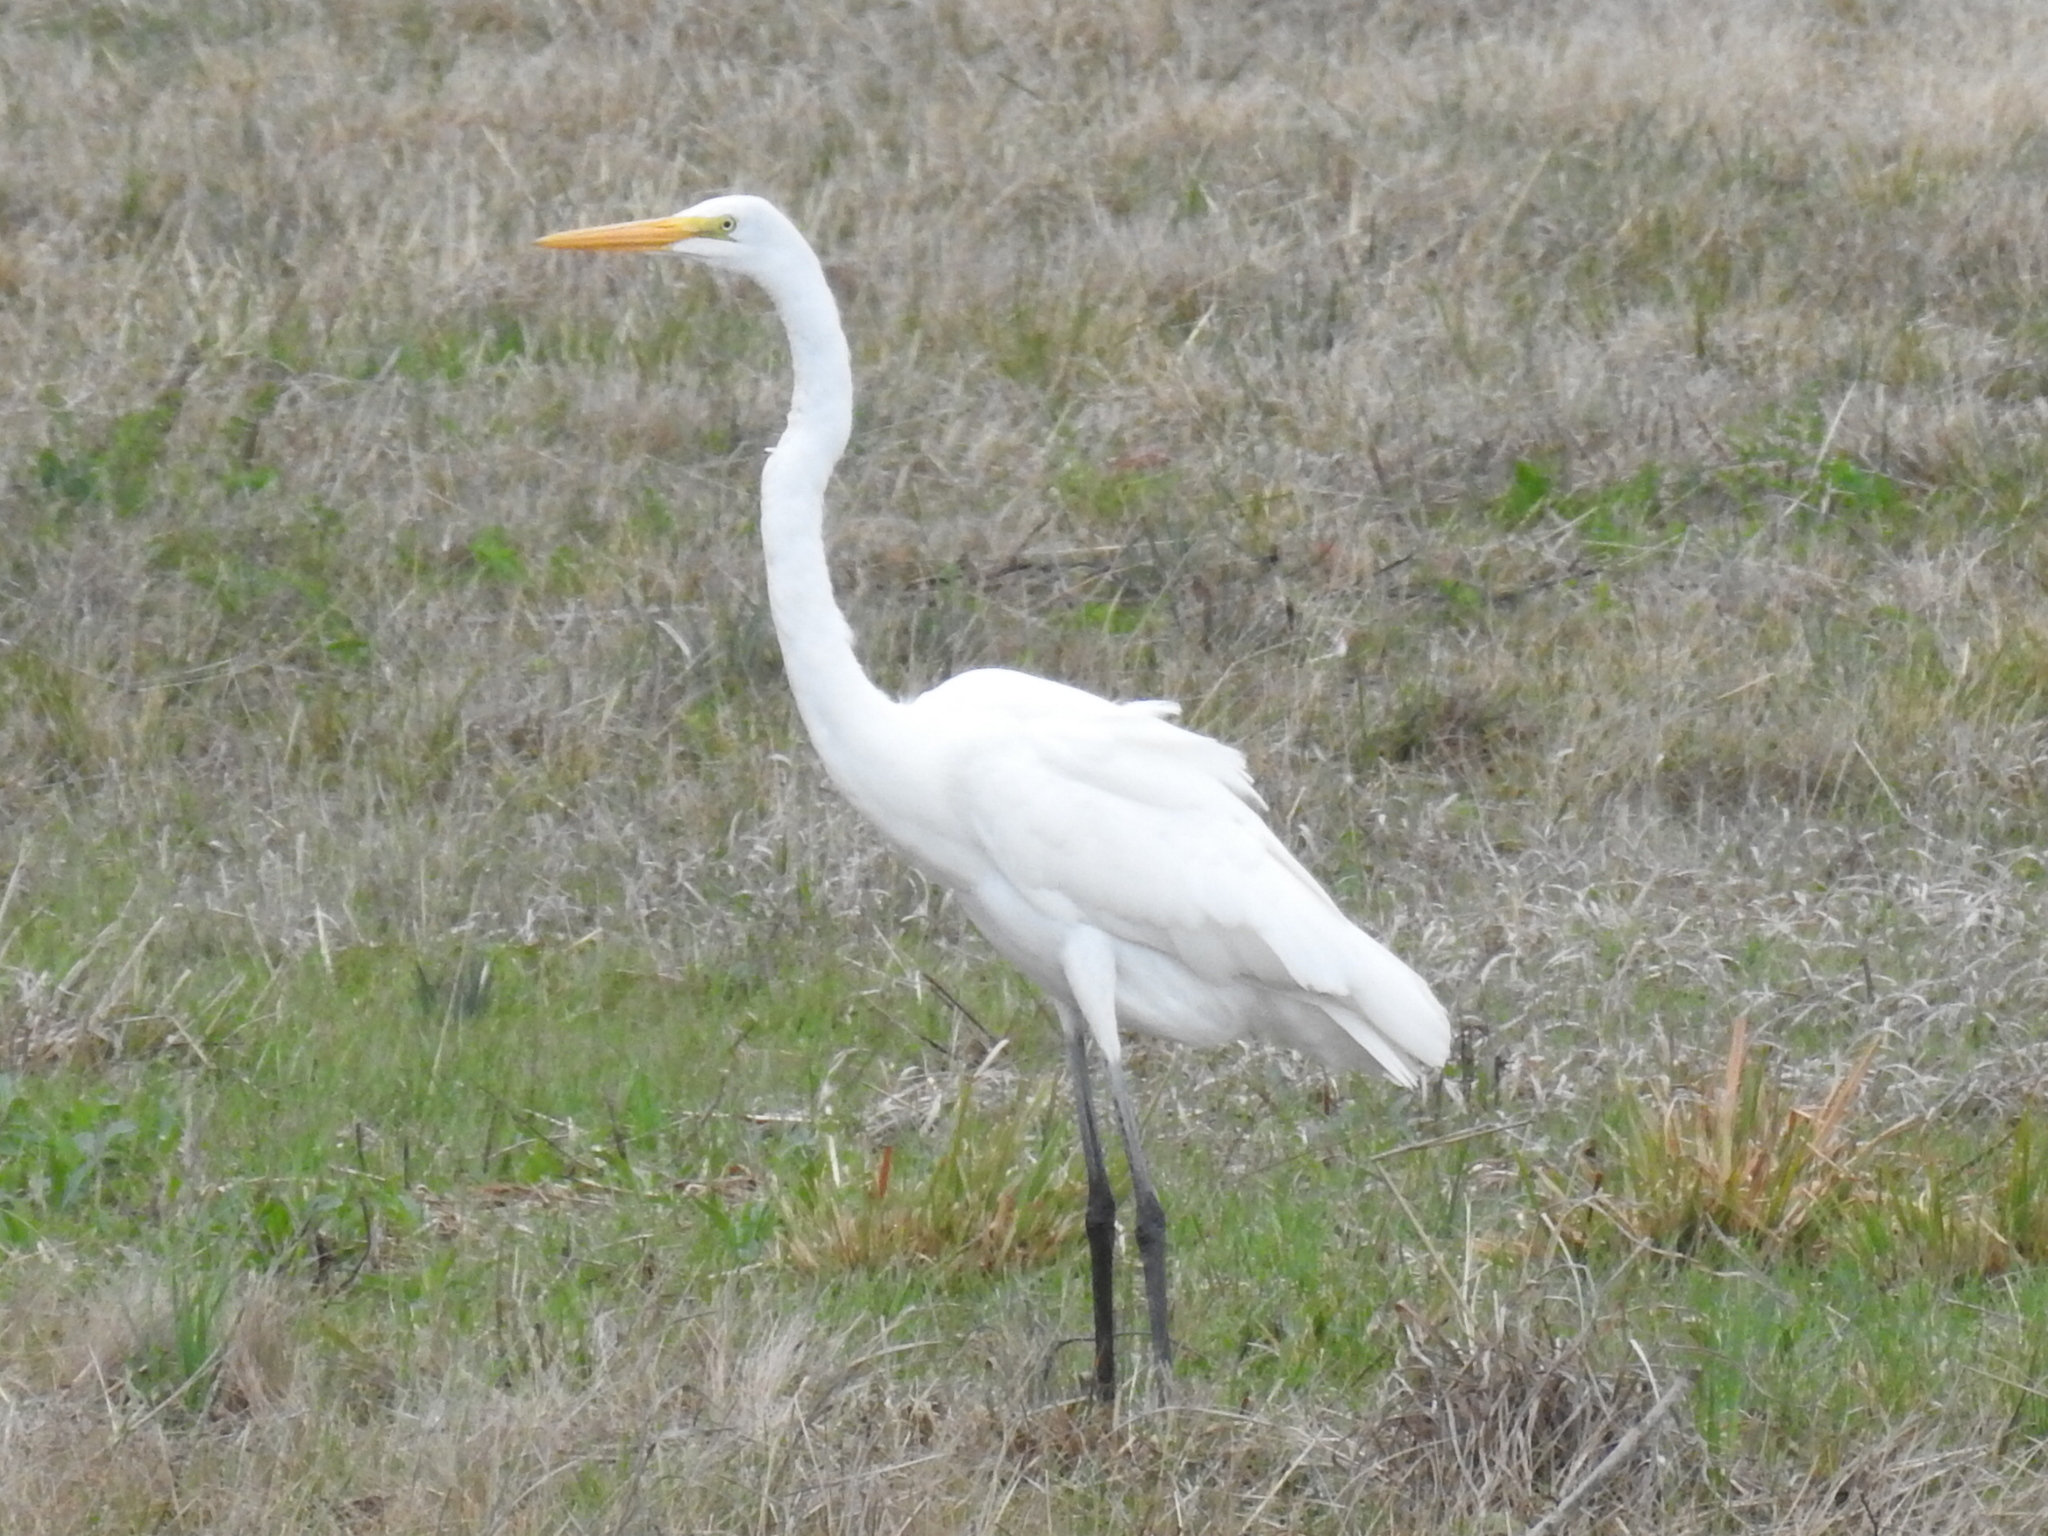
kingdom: Animalia
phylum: Chordata
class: Aves
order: Pelecaniformes
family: Ardeidae
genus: Ardea
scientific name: Ardea alba
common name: Great egret
